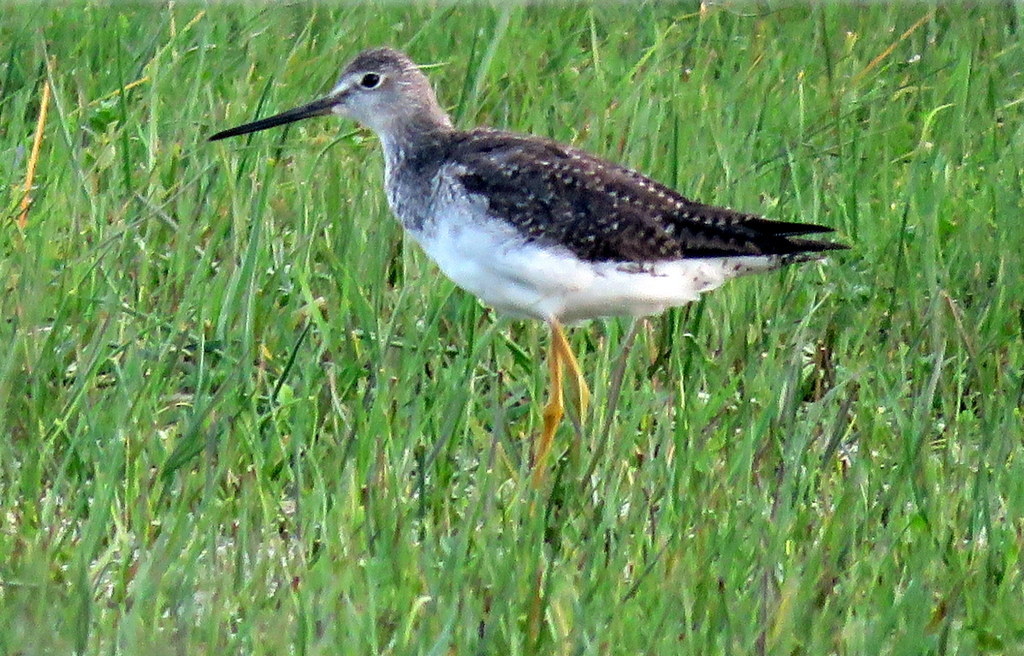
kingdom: Animalia
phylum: Chordata
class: Aves
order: Charadriiformes
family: Scolopacidae
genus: Tringa
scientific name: Tringa melanoleuca
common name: Greater yellowlegs
